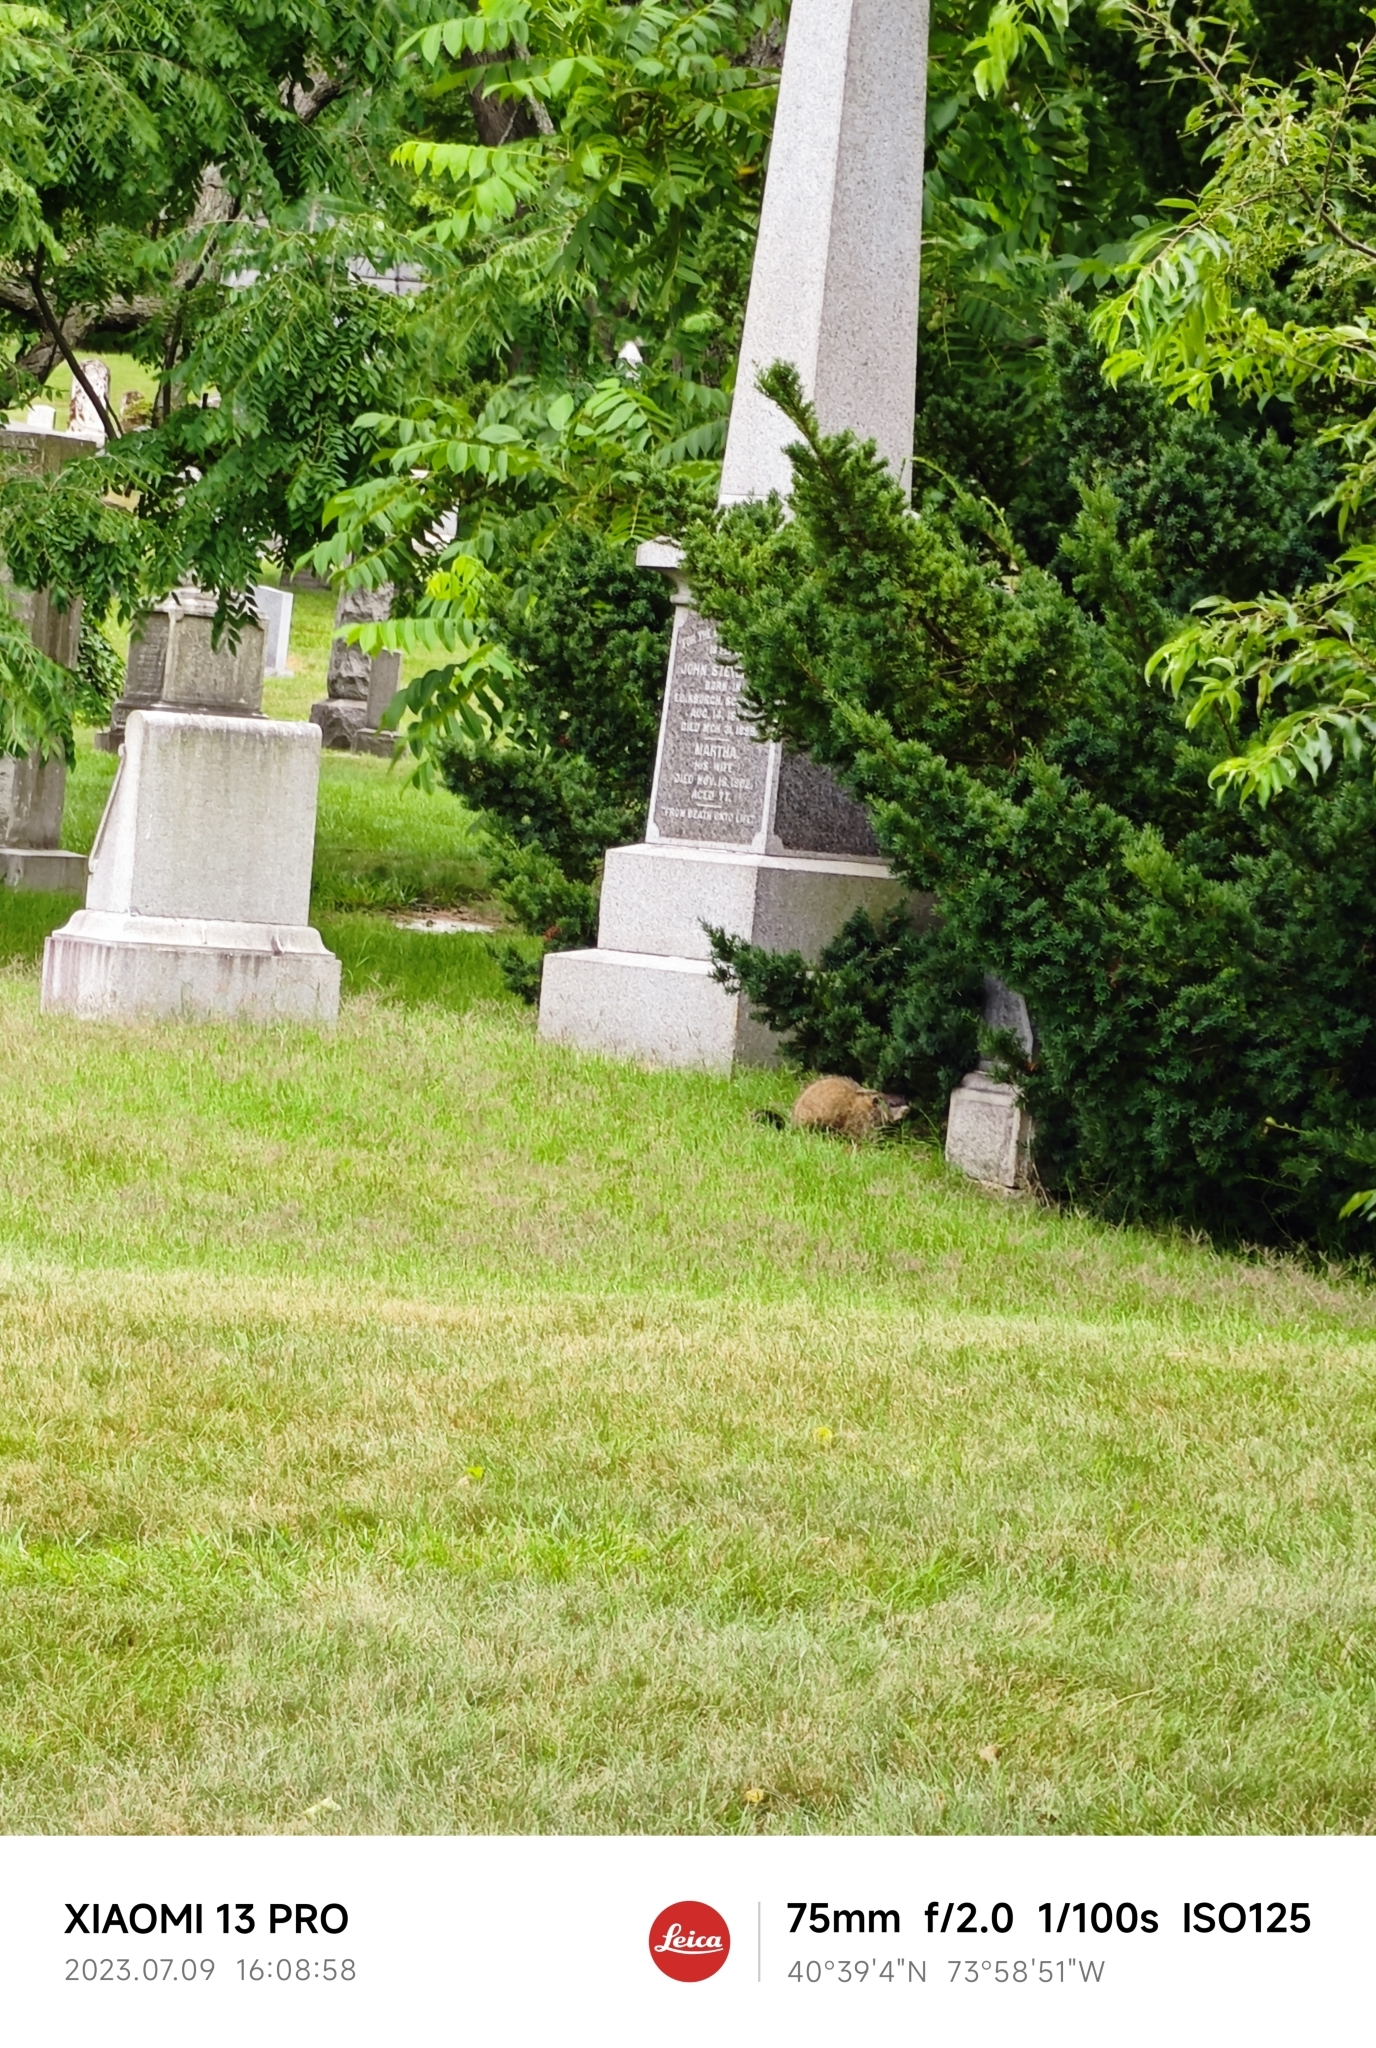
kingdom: Animalia
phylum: Chordata
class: Mammalia
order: Rodentia
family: Sciuridae
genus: Marmota
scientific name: Marmota monax
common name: Groundhog
